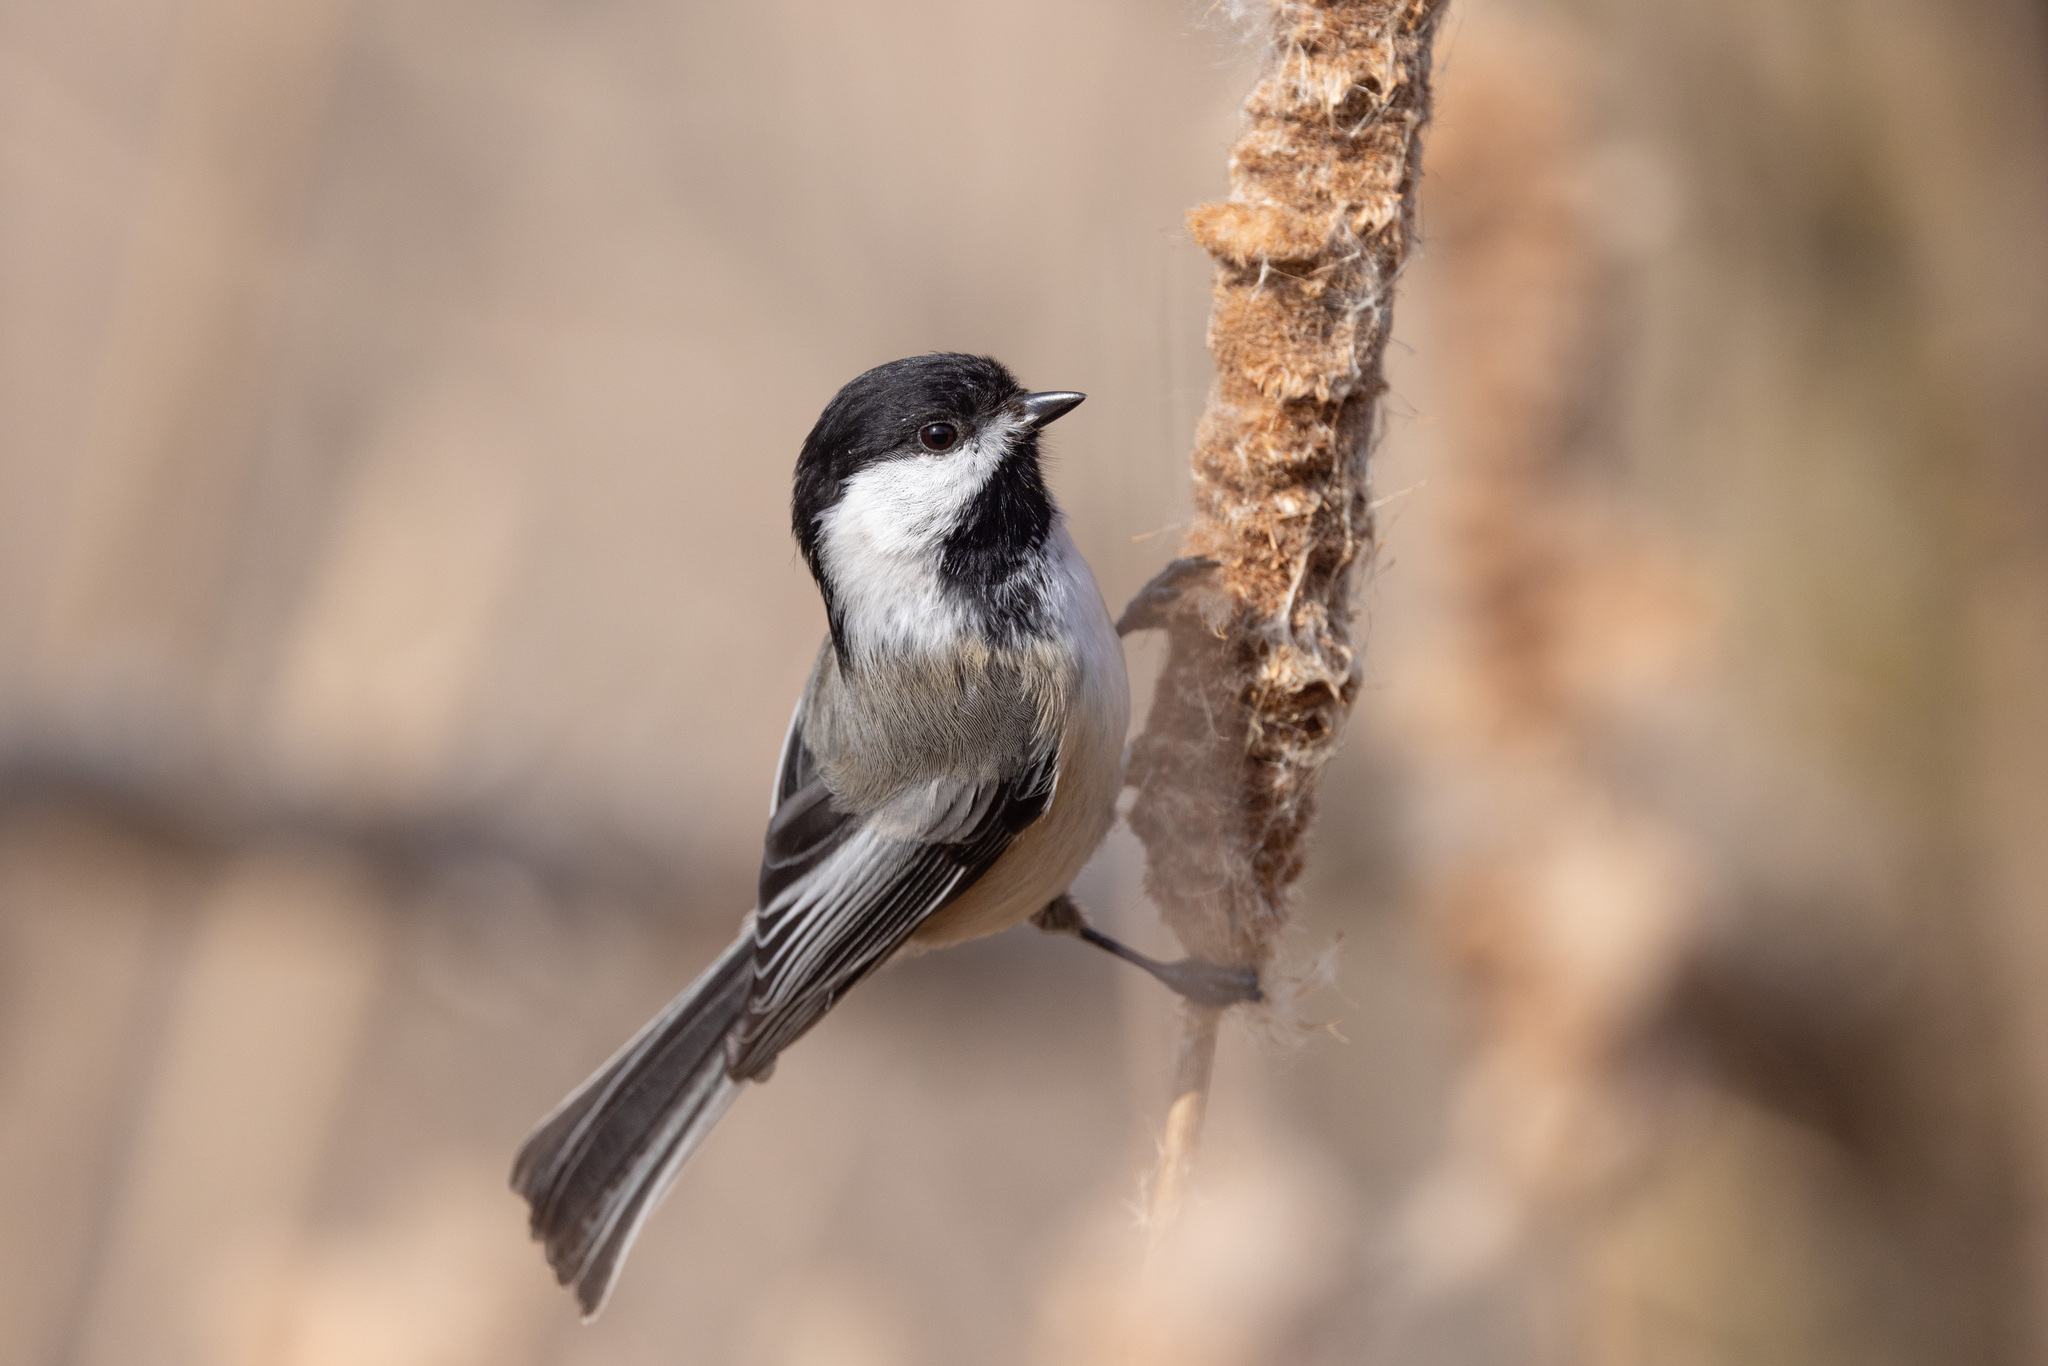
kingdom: Animalia
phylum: Chordata
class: Aves
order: Passeriformes
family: Paridae
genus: Poecile
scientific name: Poecile atricapillus
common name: Black-capped chickadee
